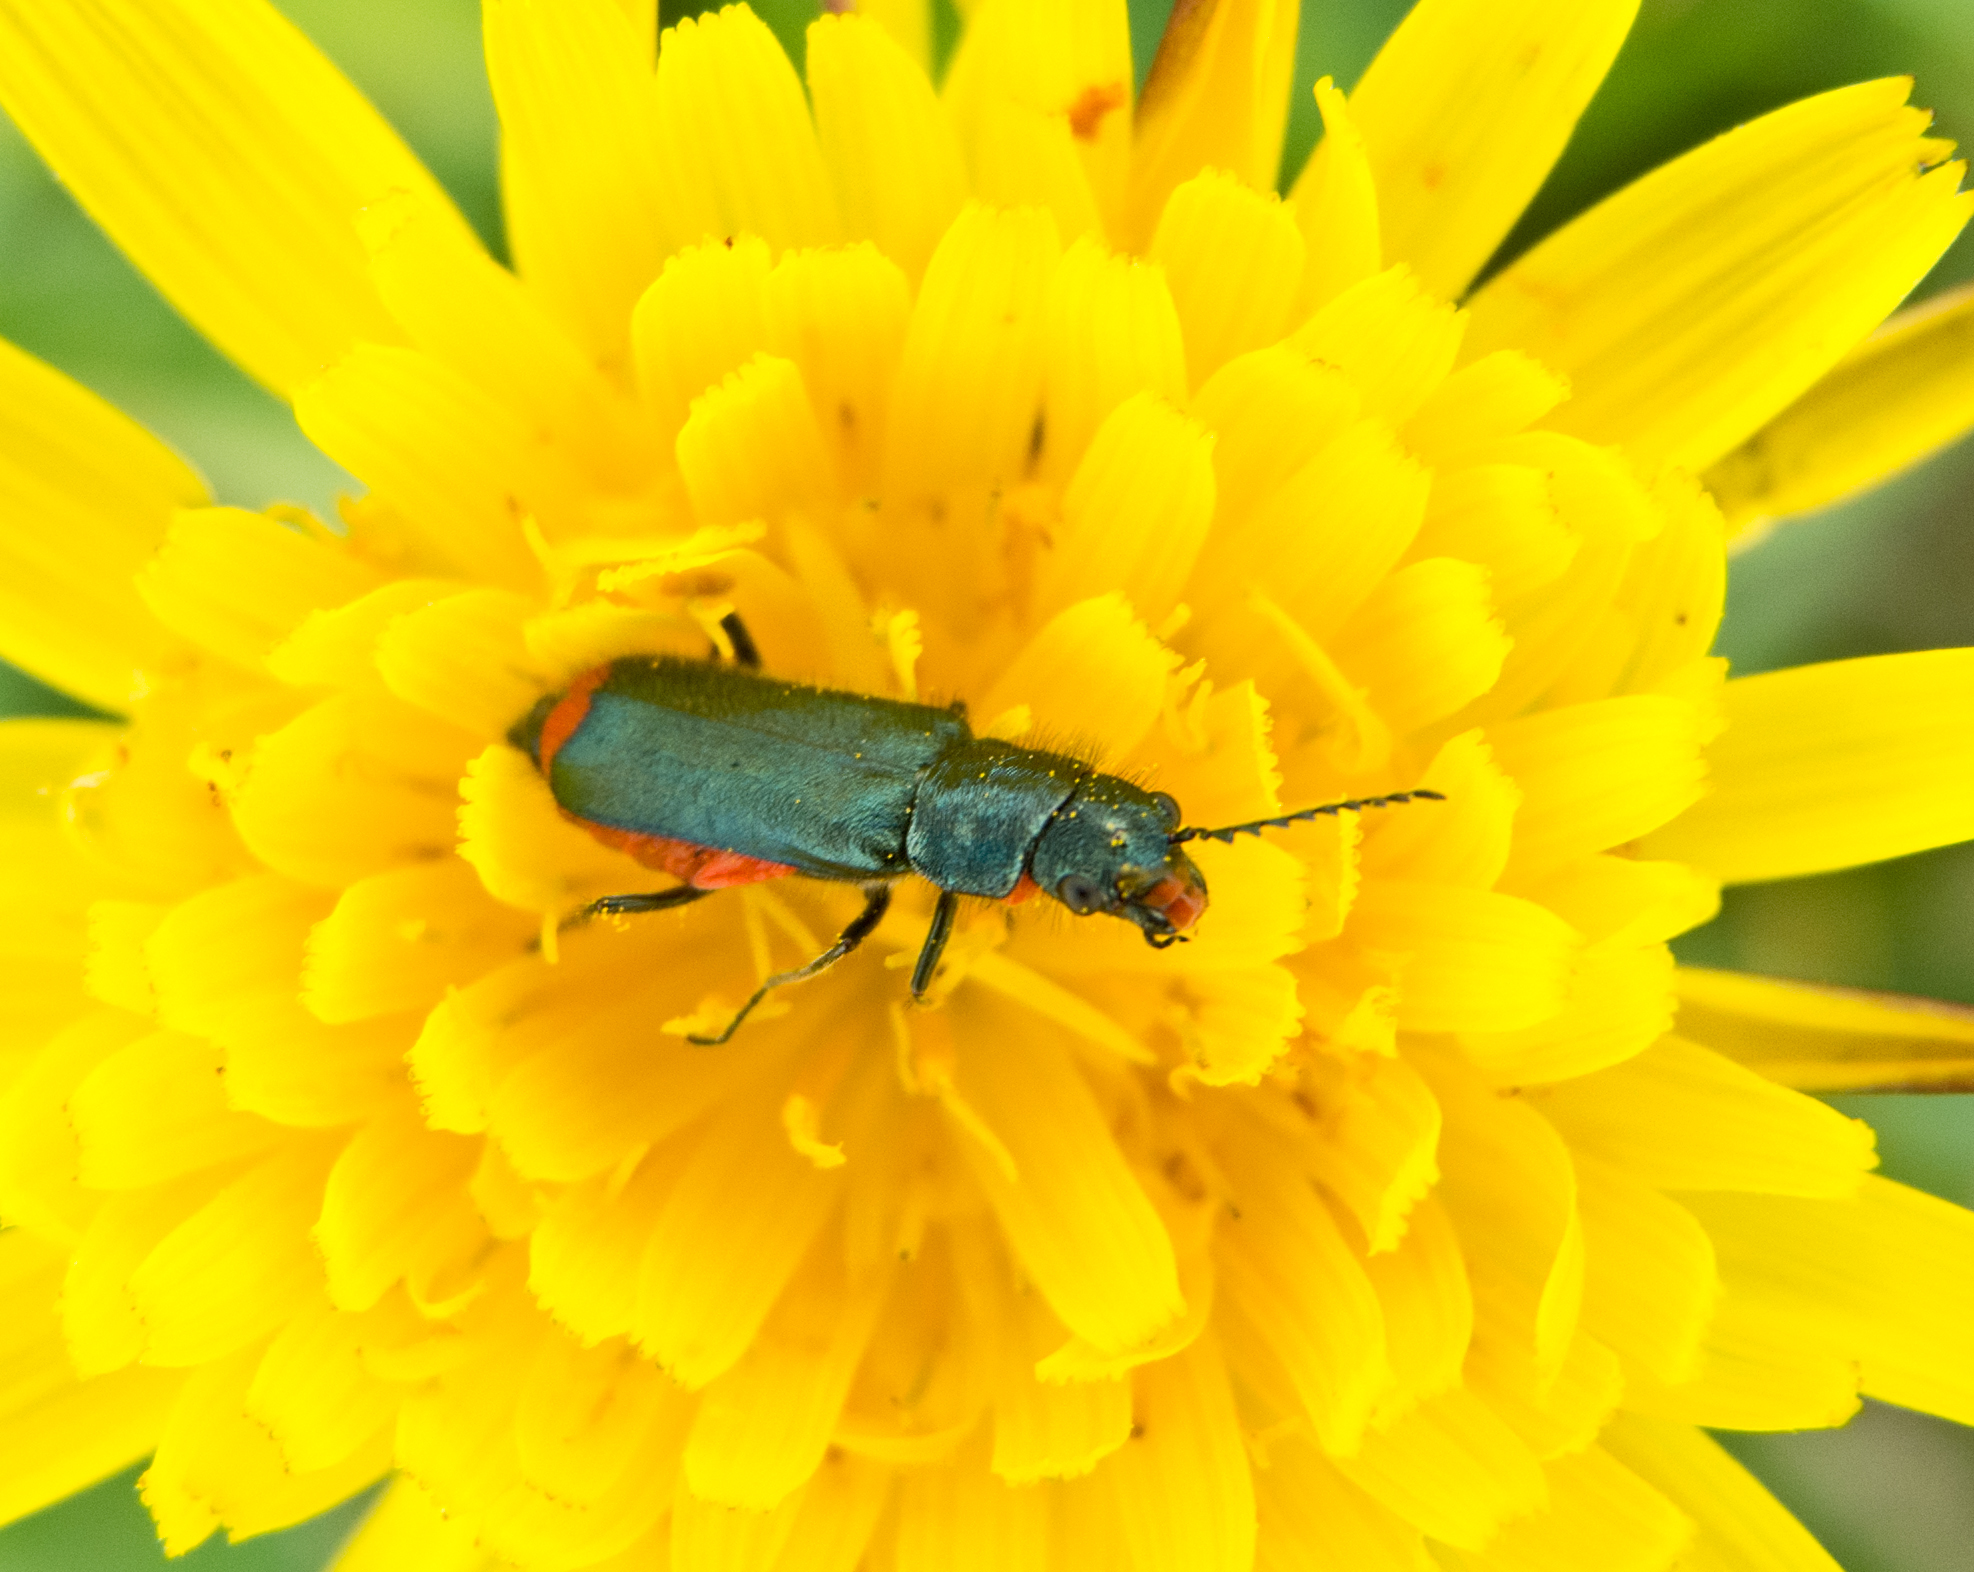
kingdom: Animalia
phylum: Arthropoda
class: Insecta
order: Coleoptera
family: Malachiidae
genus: Haplomalachius
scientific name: Haplomalachius flabellatus
